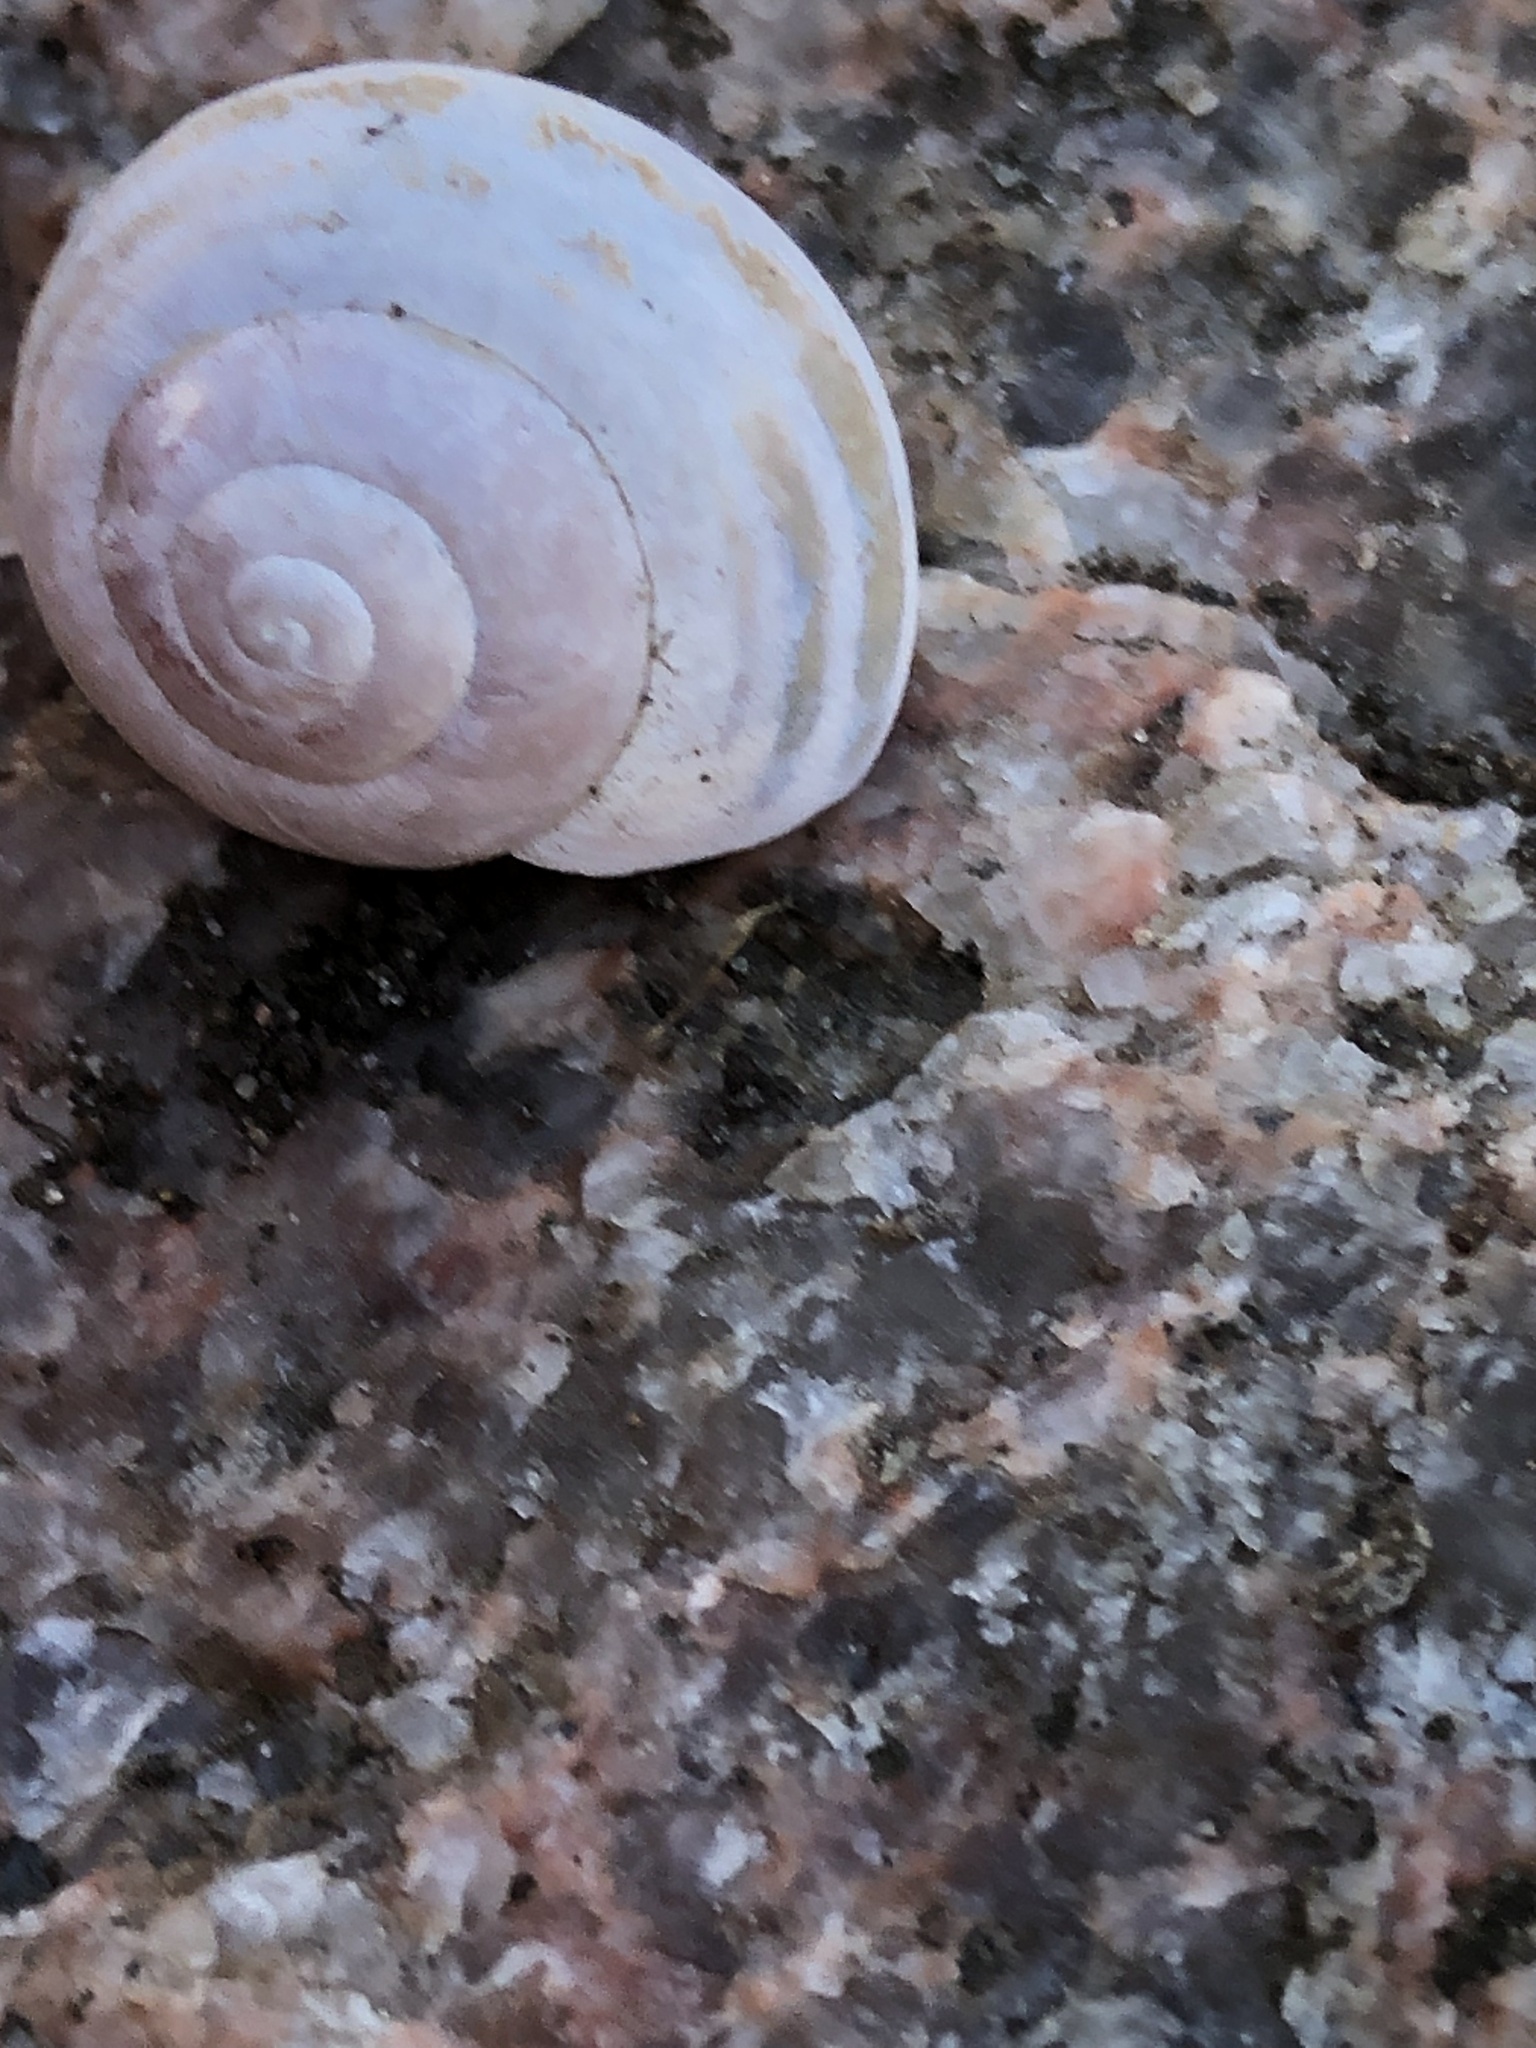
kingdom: Animalia
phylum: Mollusca
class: Gastropoda
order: Stylommatophora
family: Helicidae
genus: Cepaea
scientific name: Cepaea nemoralis
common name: Grovesnail
